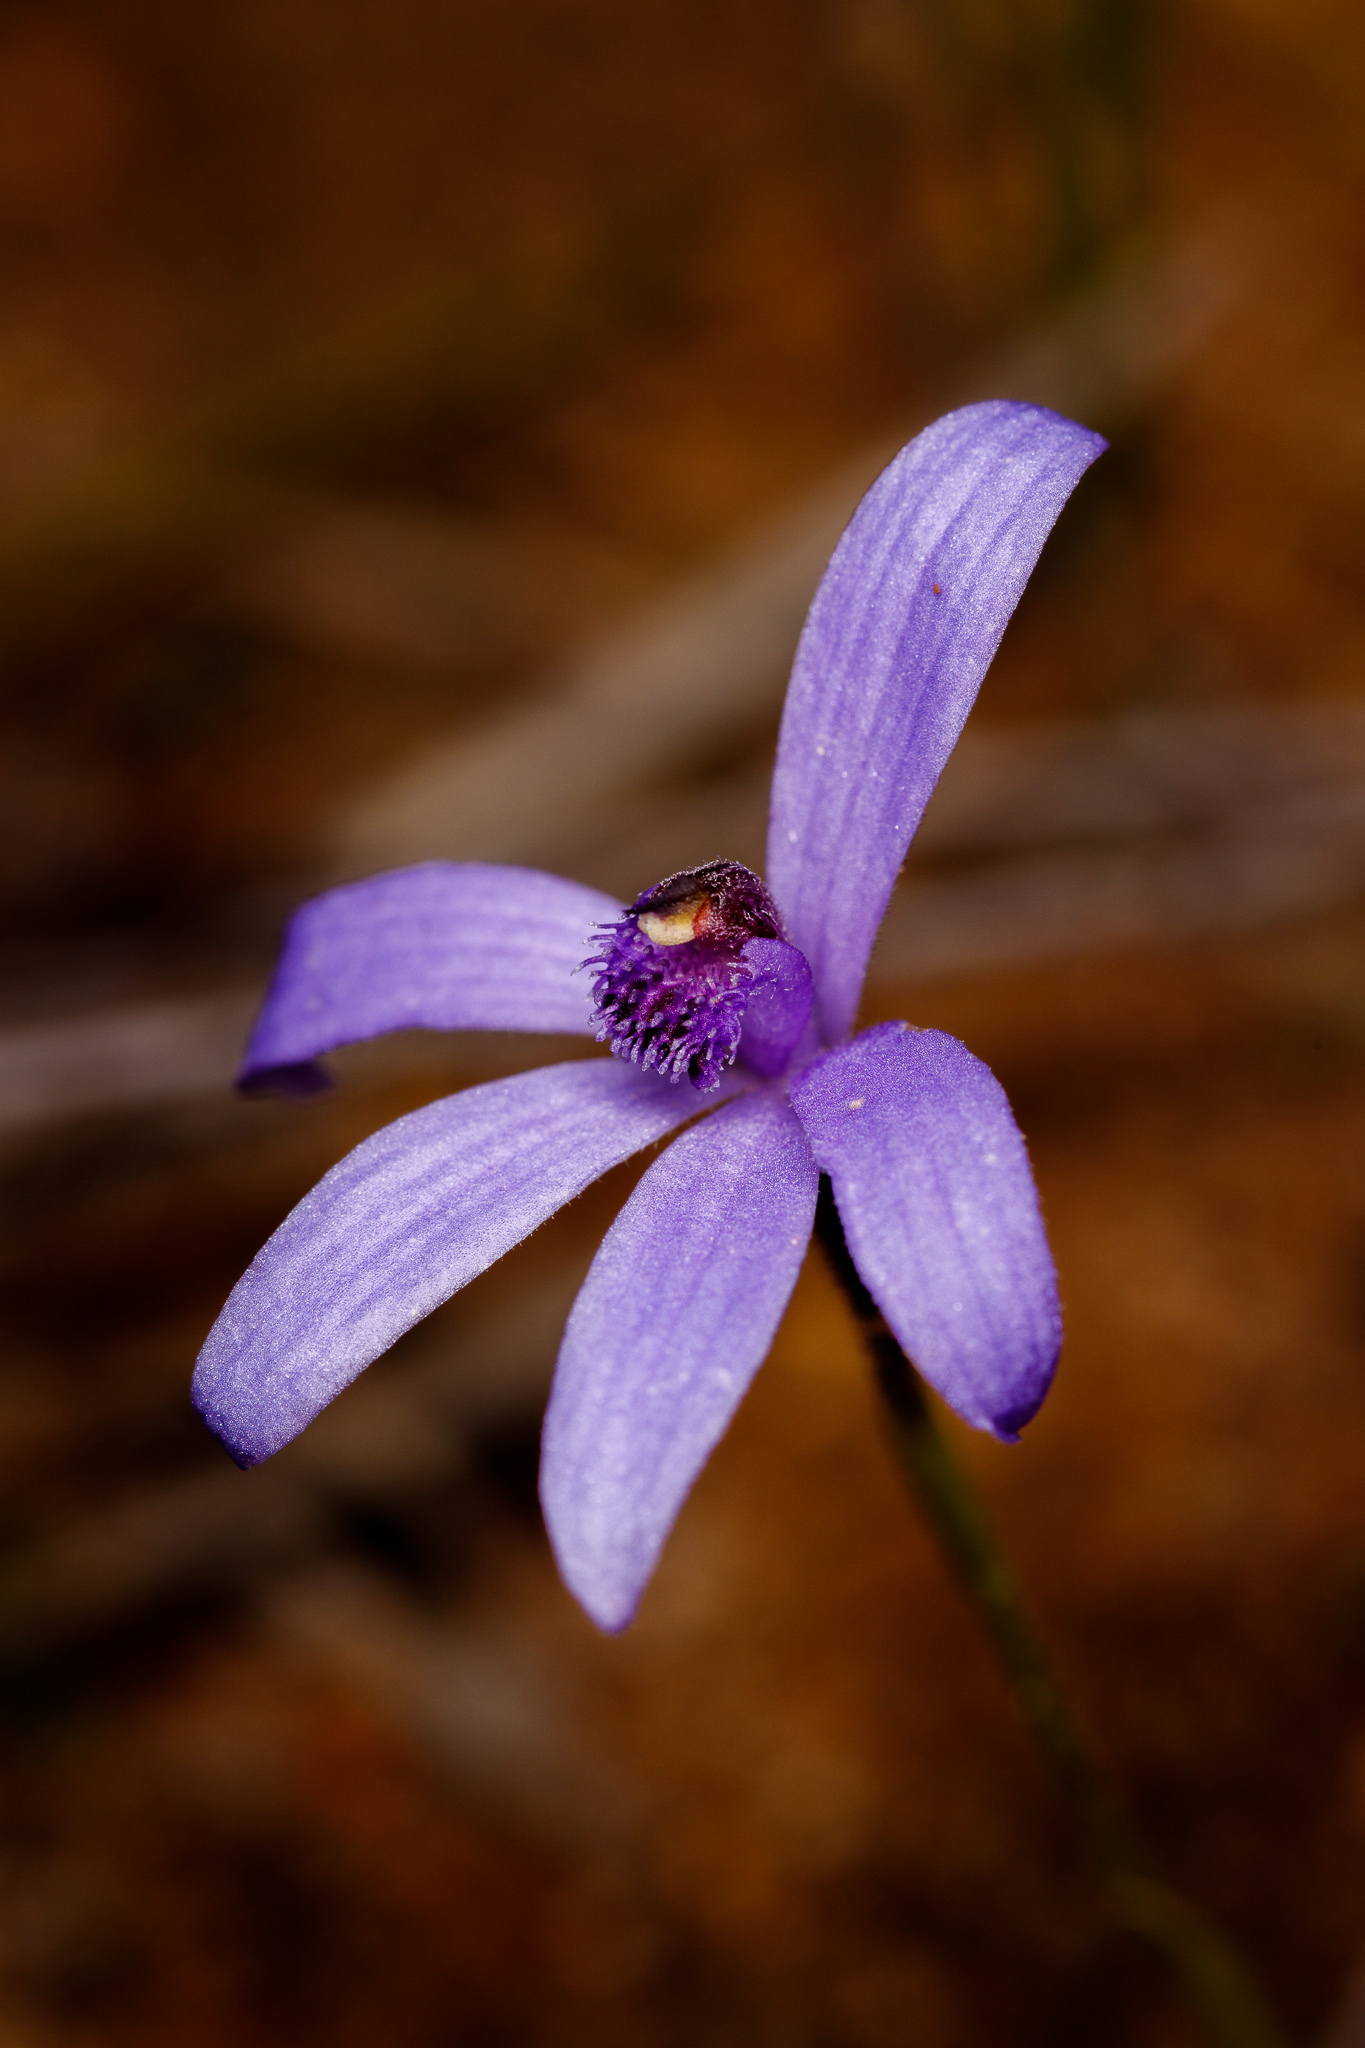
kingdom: Plantae
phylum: Tracheophyta
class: Liliopsida
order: Asparagales
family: Orchidaceae
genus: Pheladenia
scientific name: Pheladenia deformis
